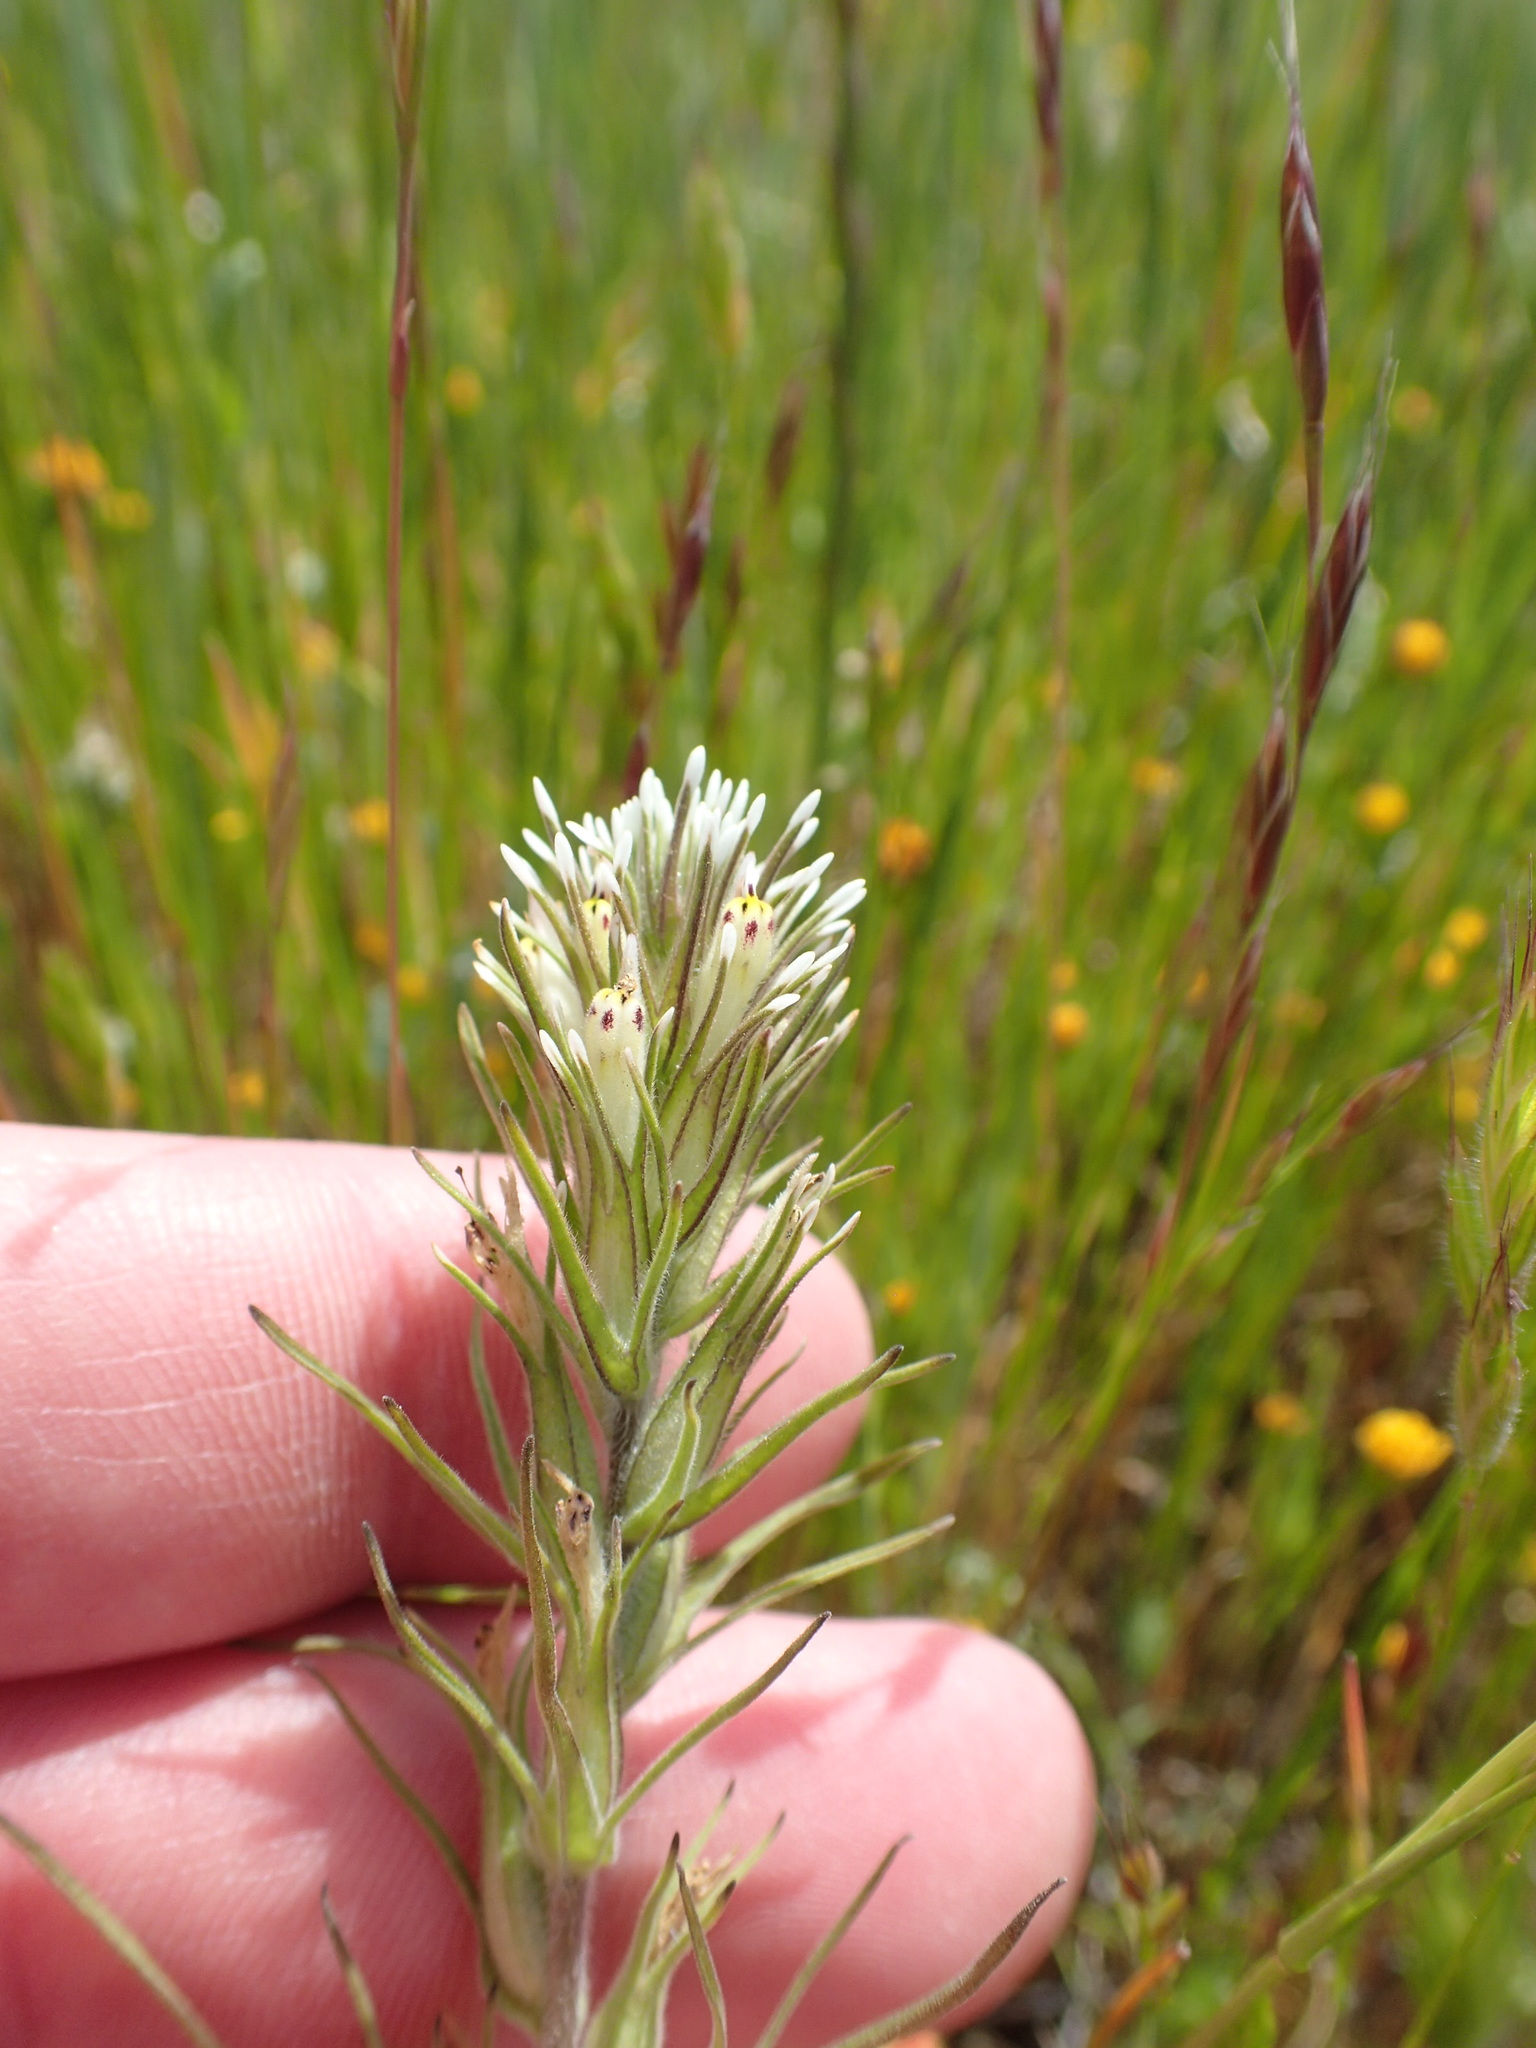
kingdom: Plantae
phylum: Tracheophyta
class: Magnoliopsida
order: Lamiales
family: Orobanchaceae
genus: Castilleja
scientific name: Castilleja attenuata
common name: Valley tassels
